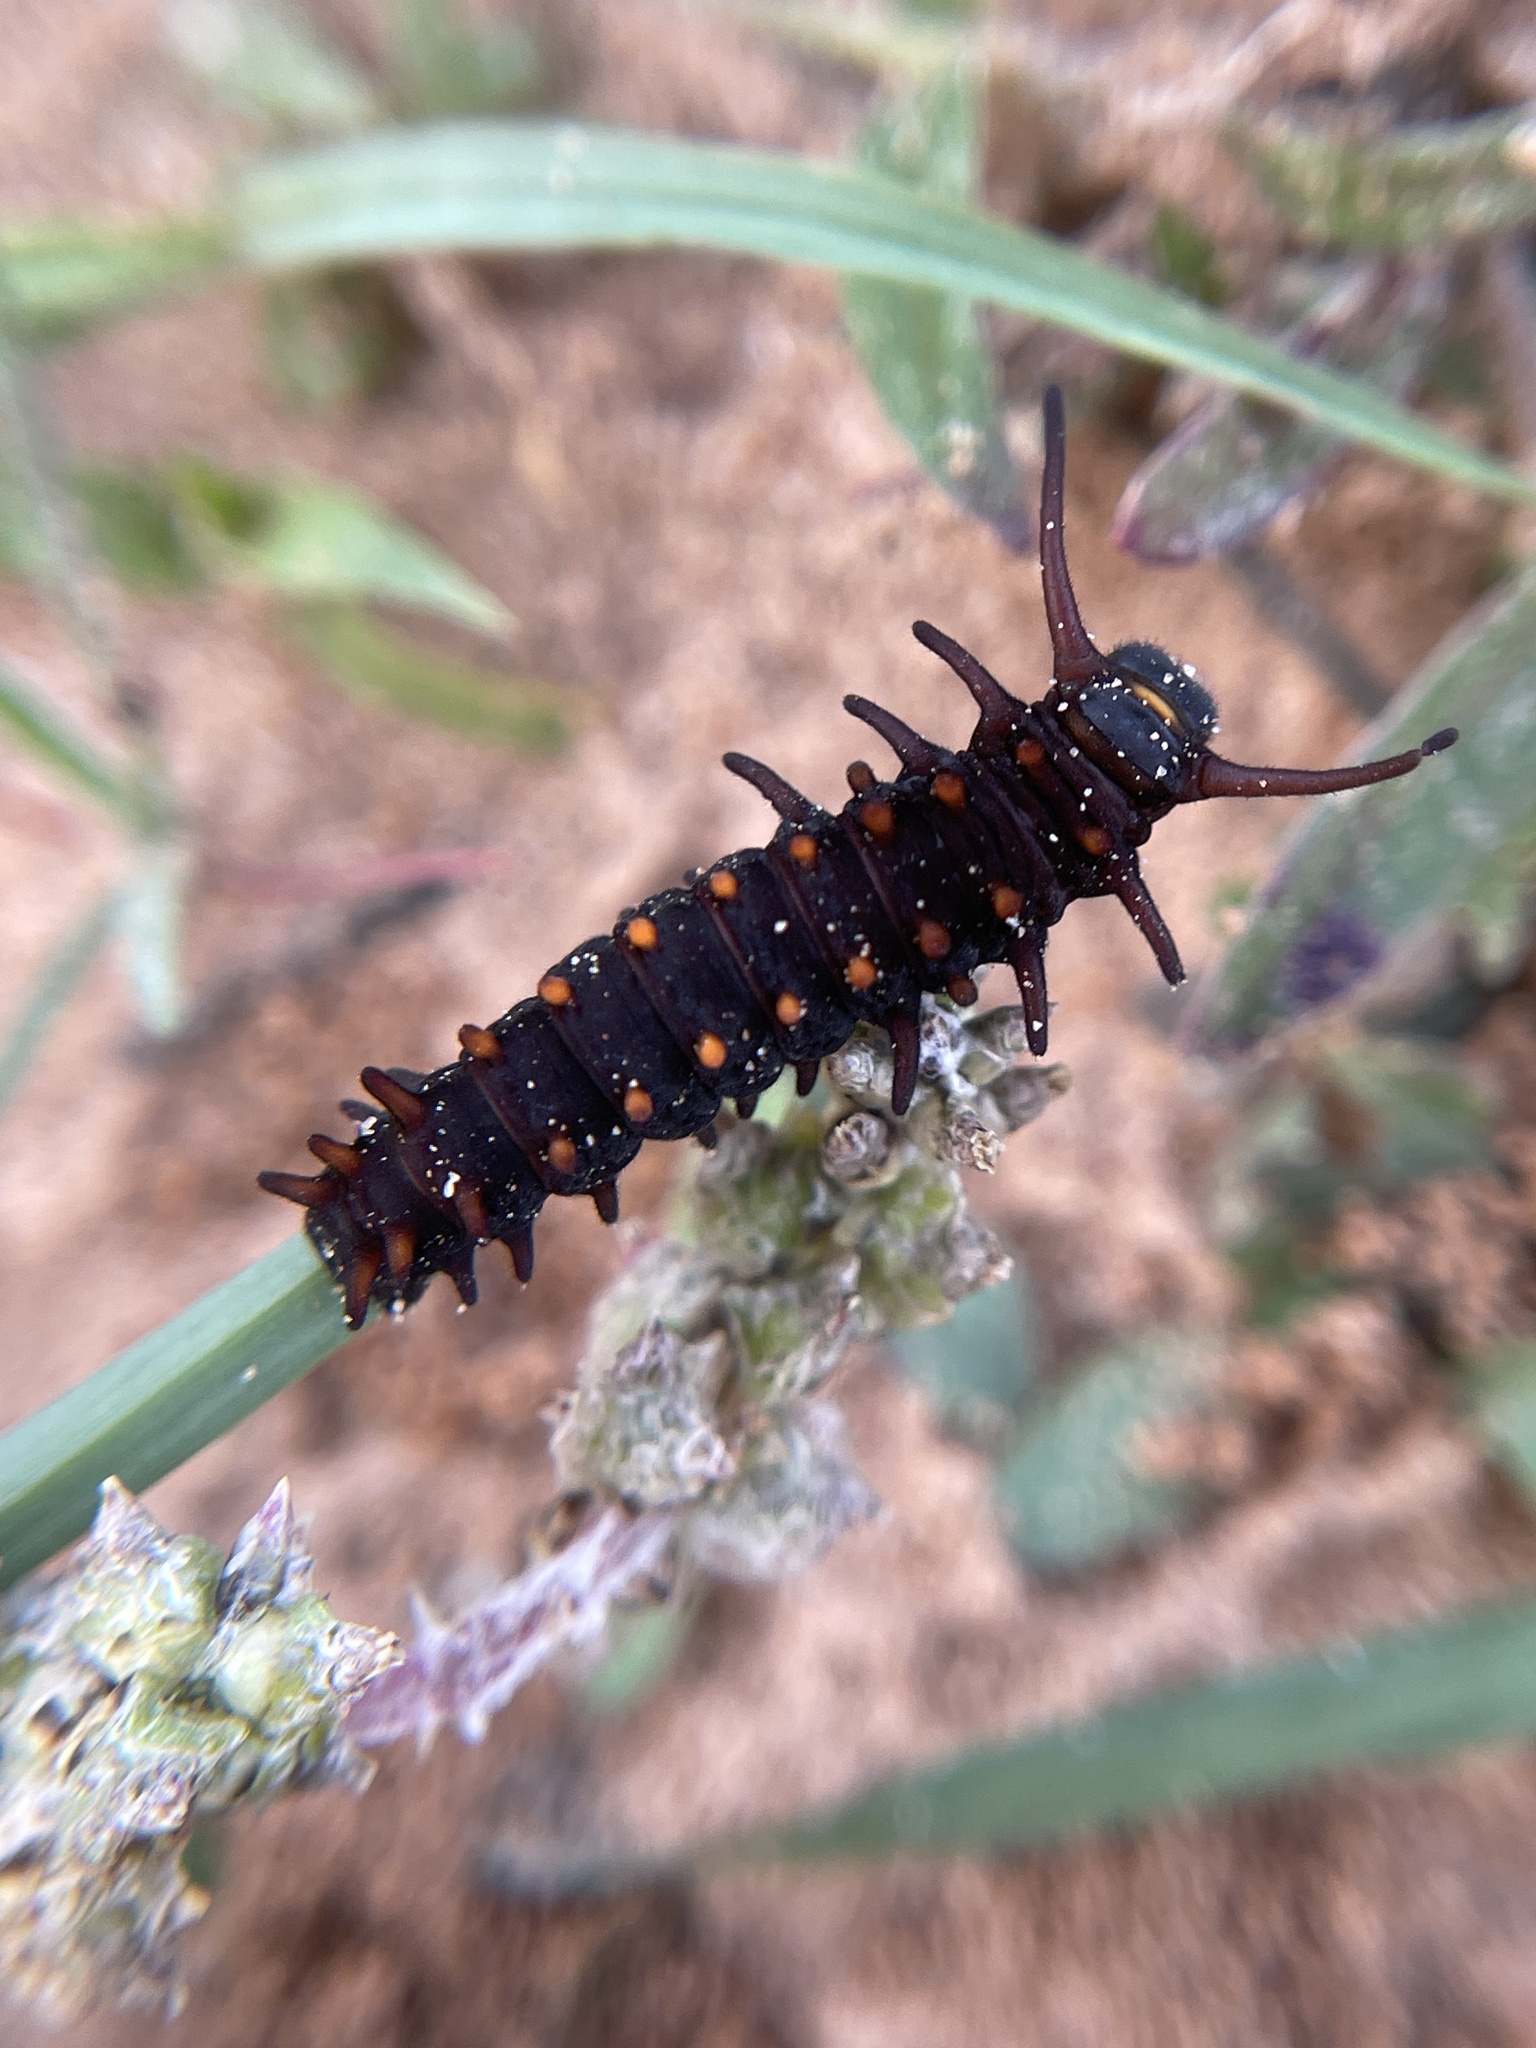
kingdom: Animalia
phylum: Arthropoda
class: Insecta
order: Lepidoptera
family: Papilionidae
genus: Battus
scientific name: Battus philenor
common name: Pipevine swallowtail
